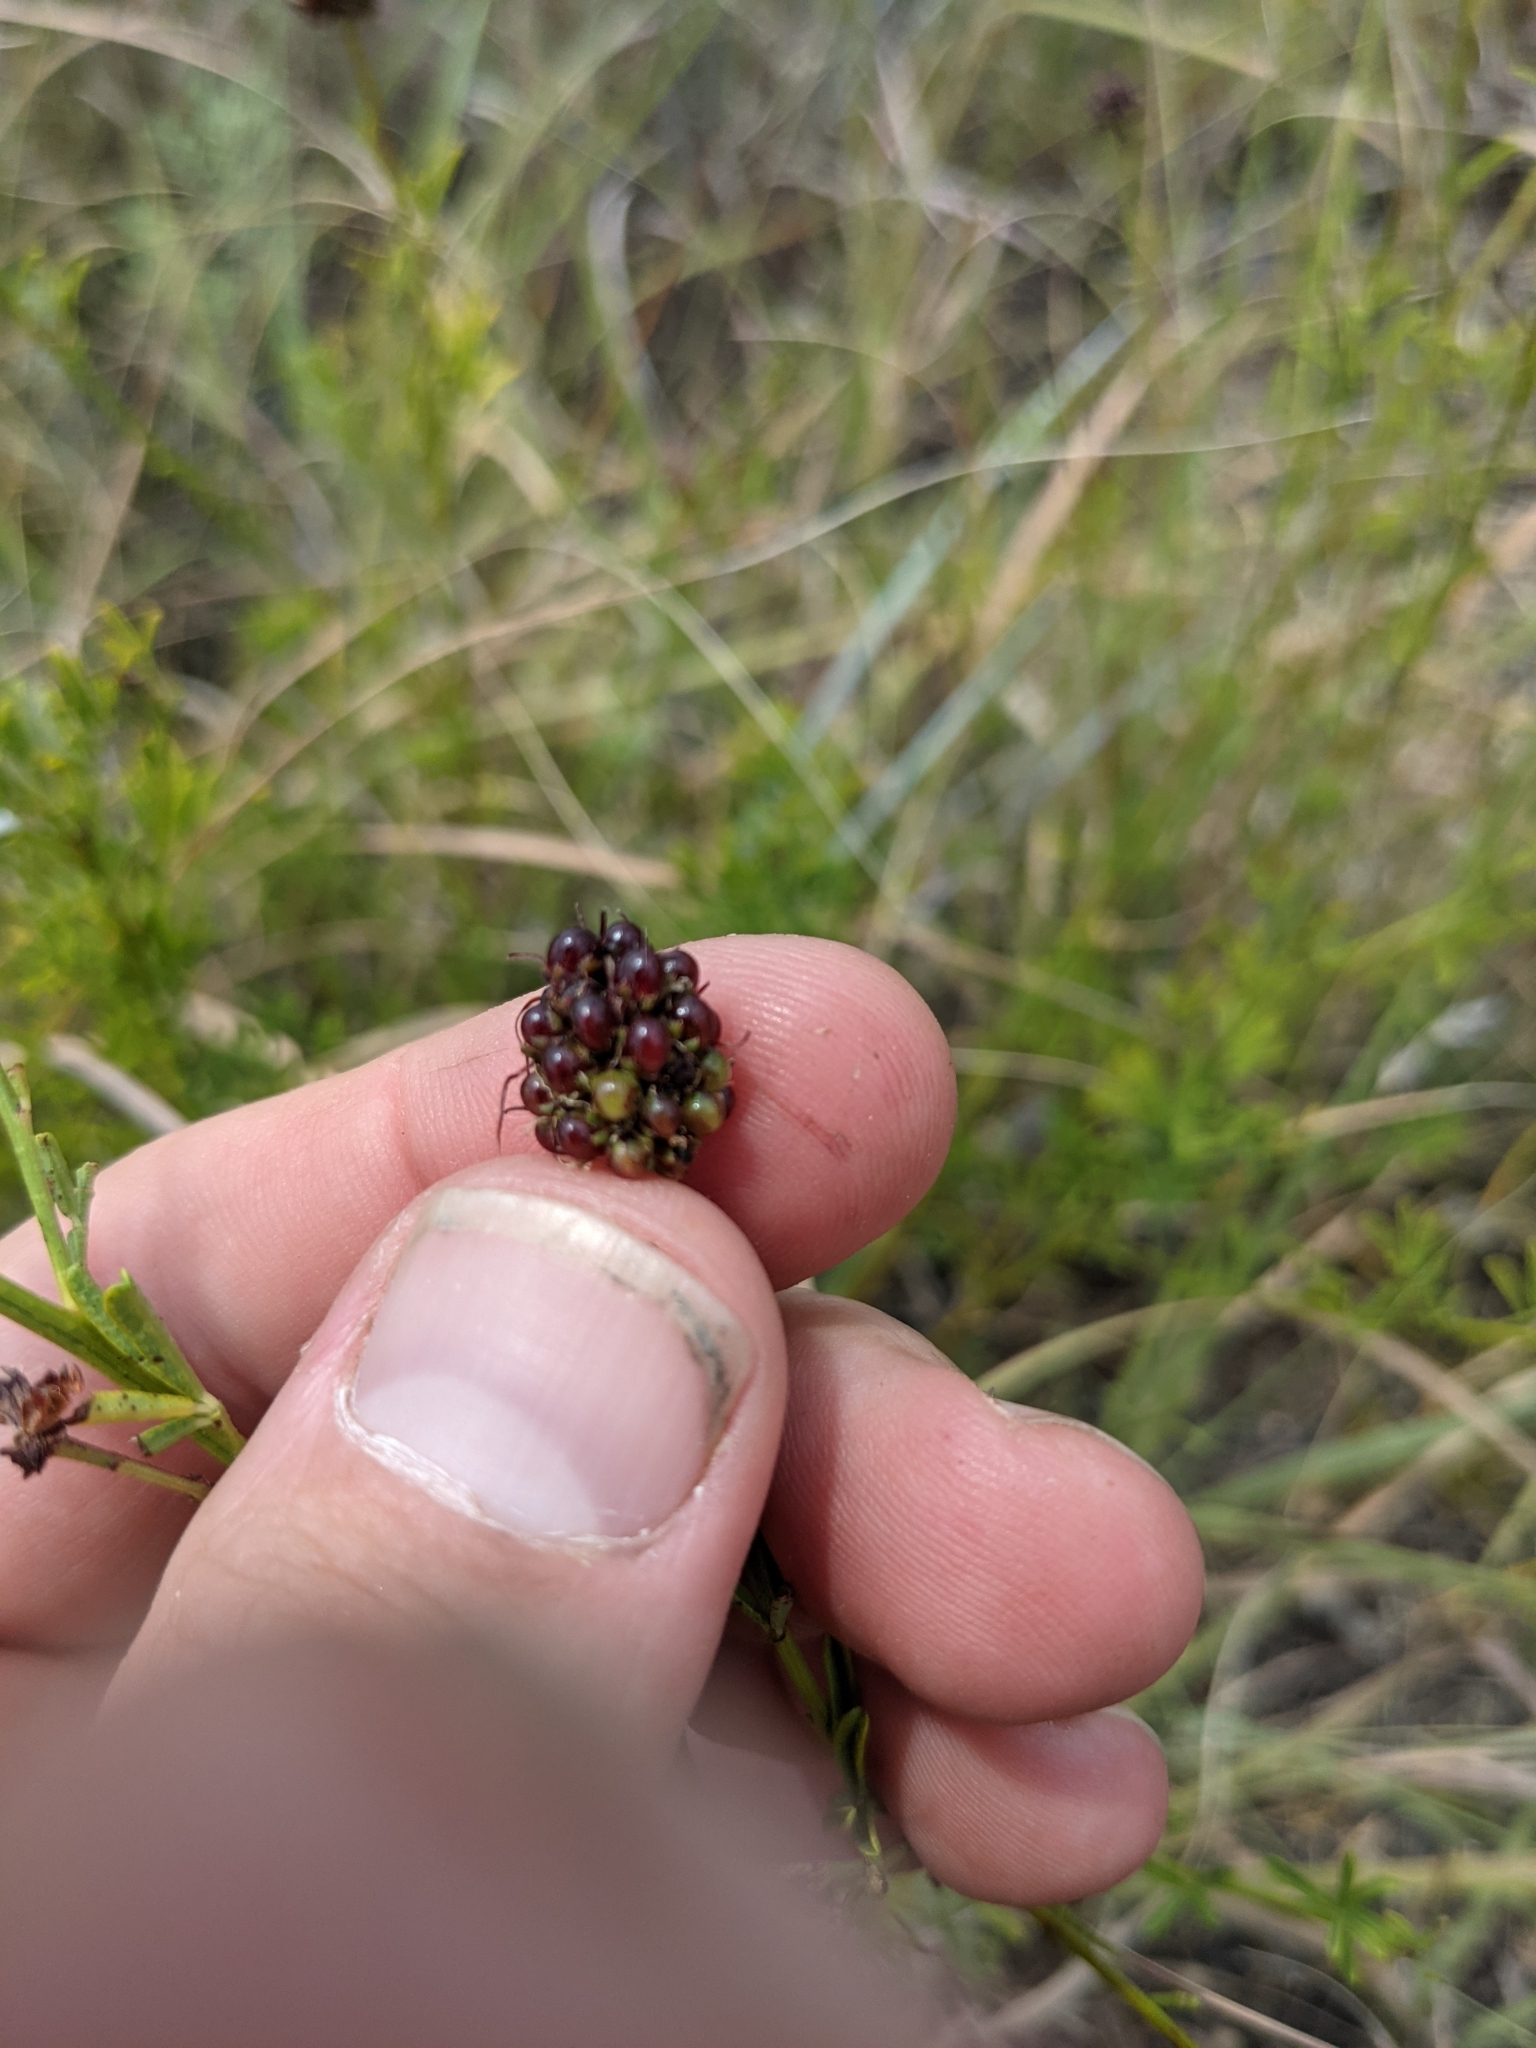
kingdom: Plantae
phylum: Tracheophyta
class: Magnoliopsida
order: Fabales
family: Fabaceae
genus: Dalea
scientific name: Dalea multiflora
